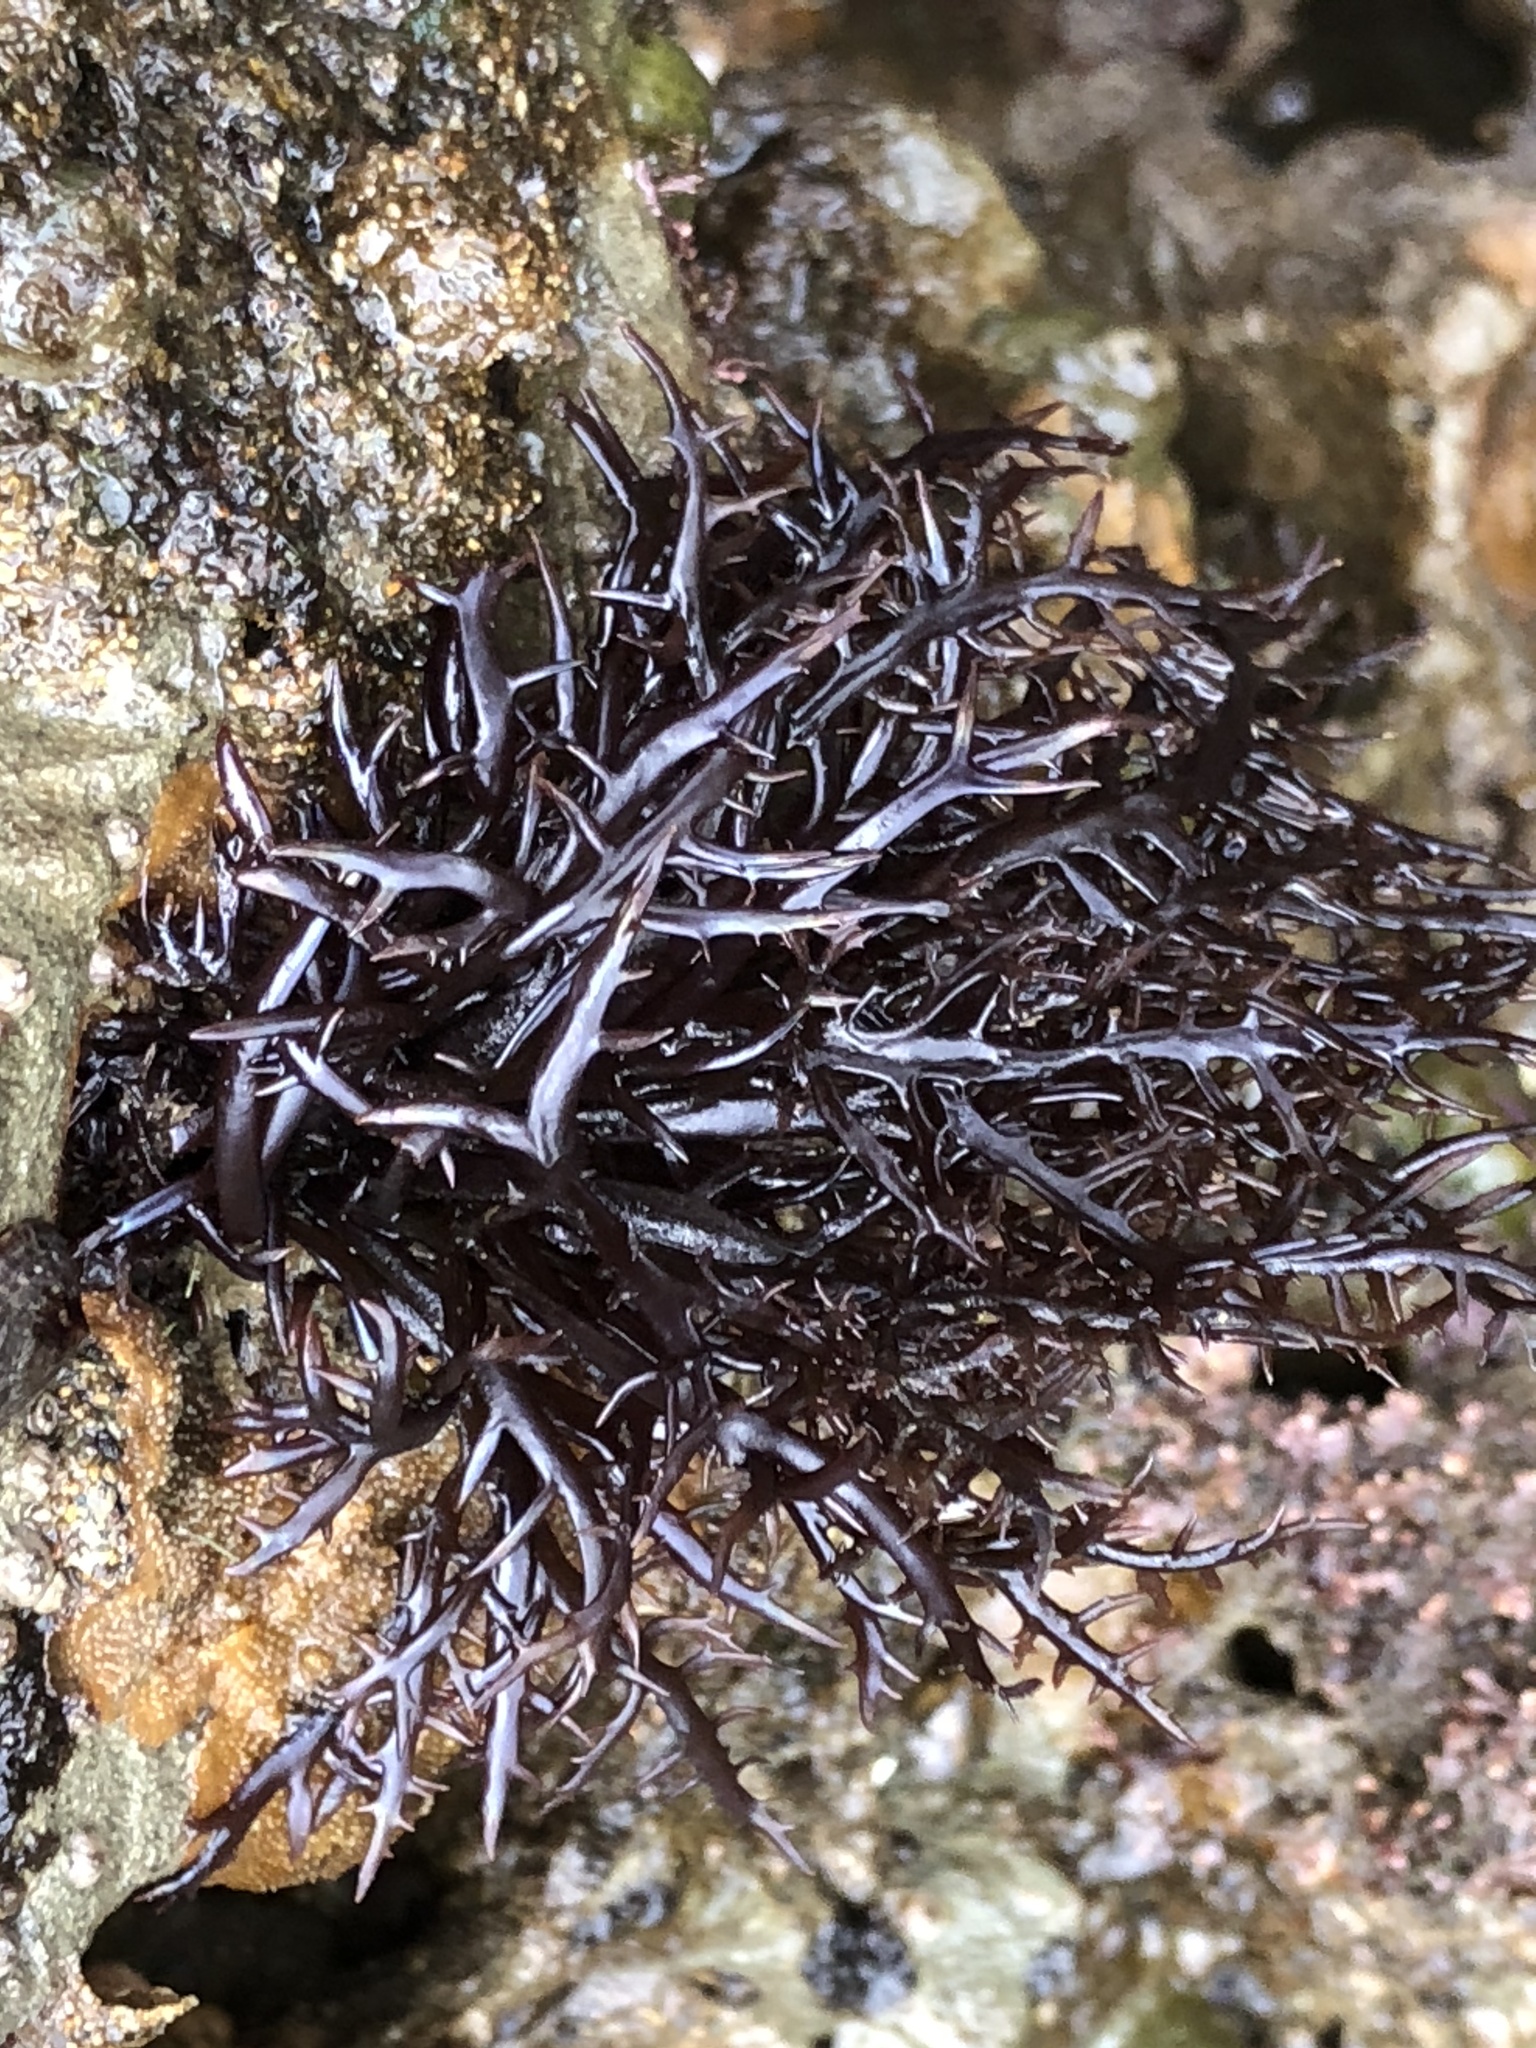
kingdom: Plantae
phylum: Rhodophyta
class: Florideophyceae
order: Gigartinales
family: Gigartinaceae
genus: Chondracanthus
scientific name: Chondracanthus canaliculatus
